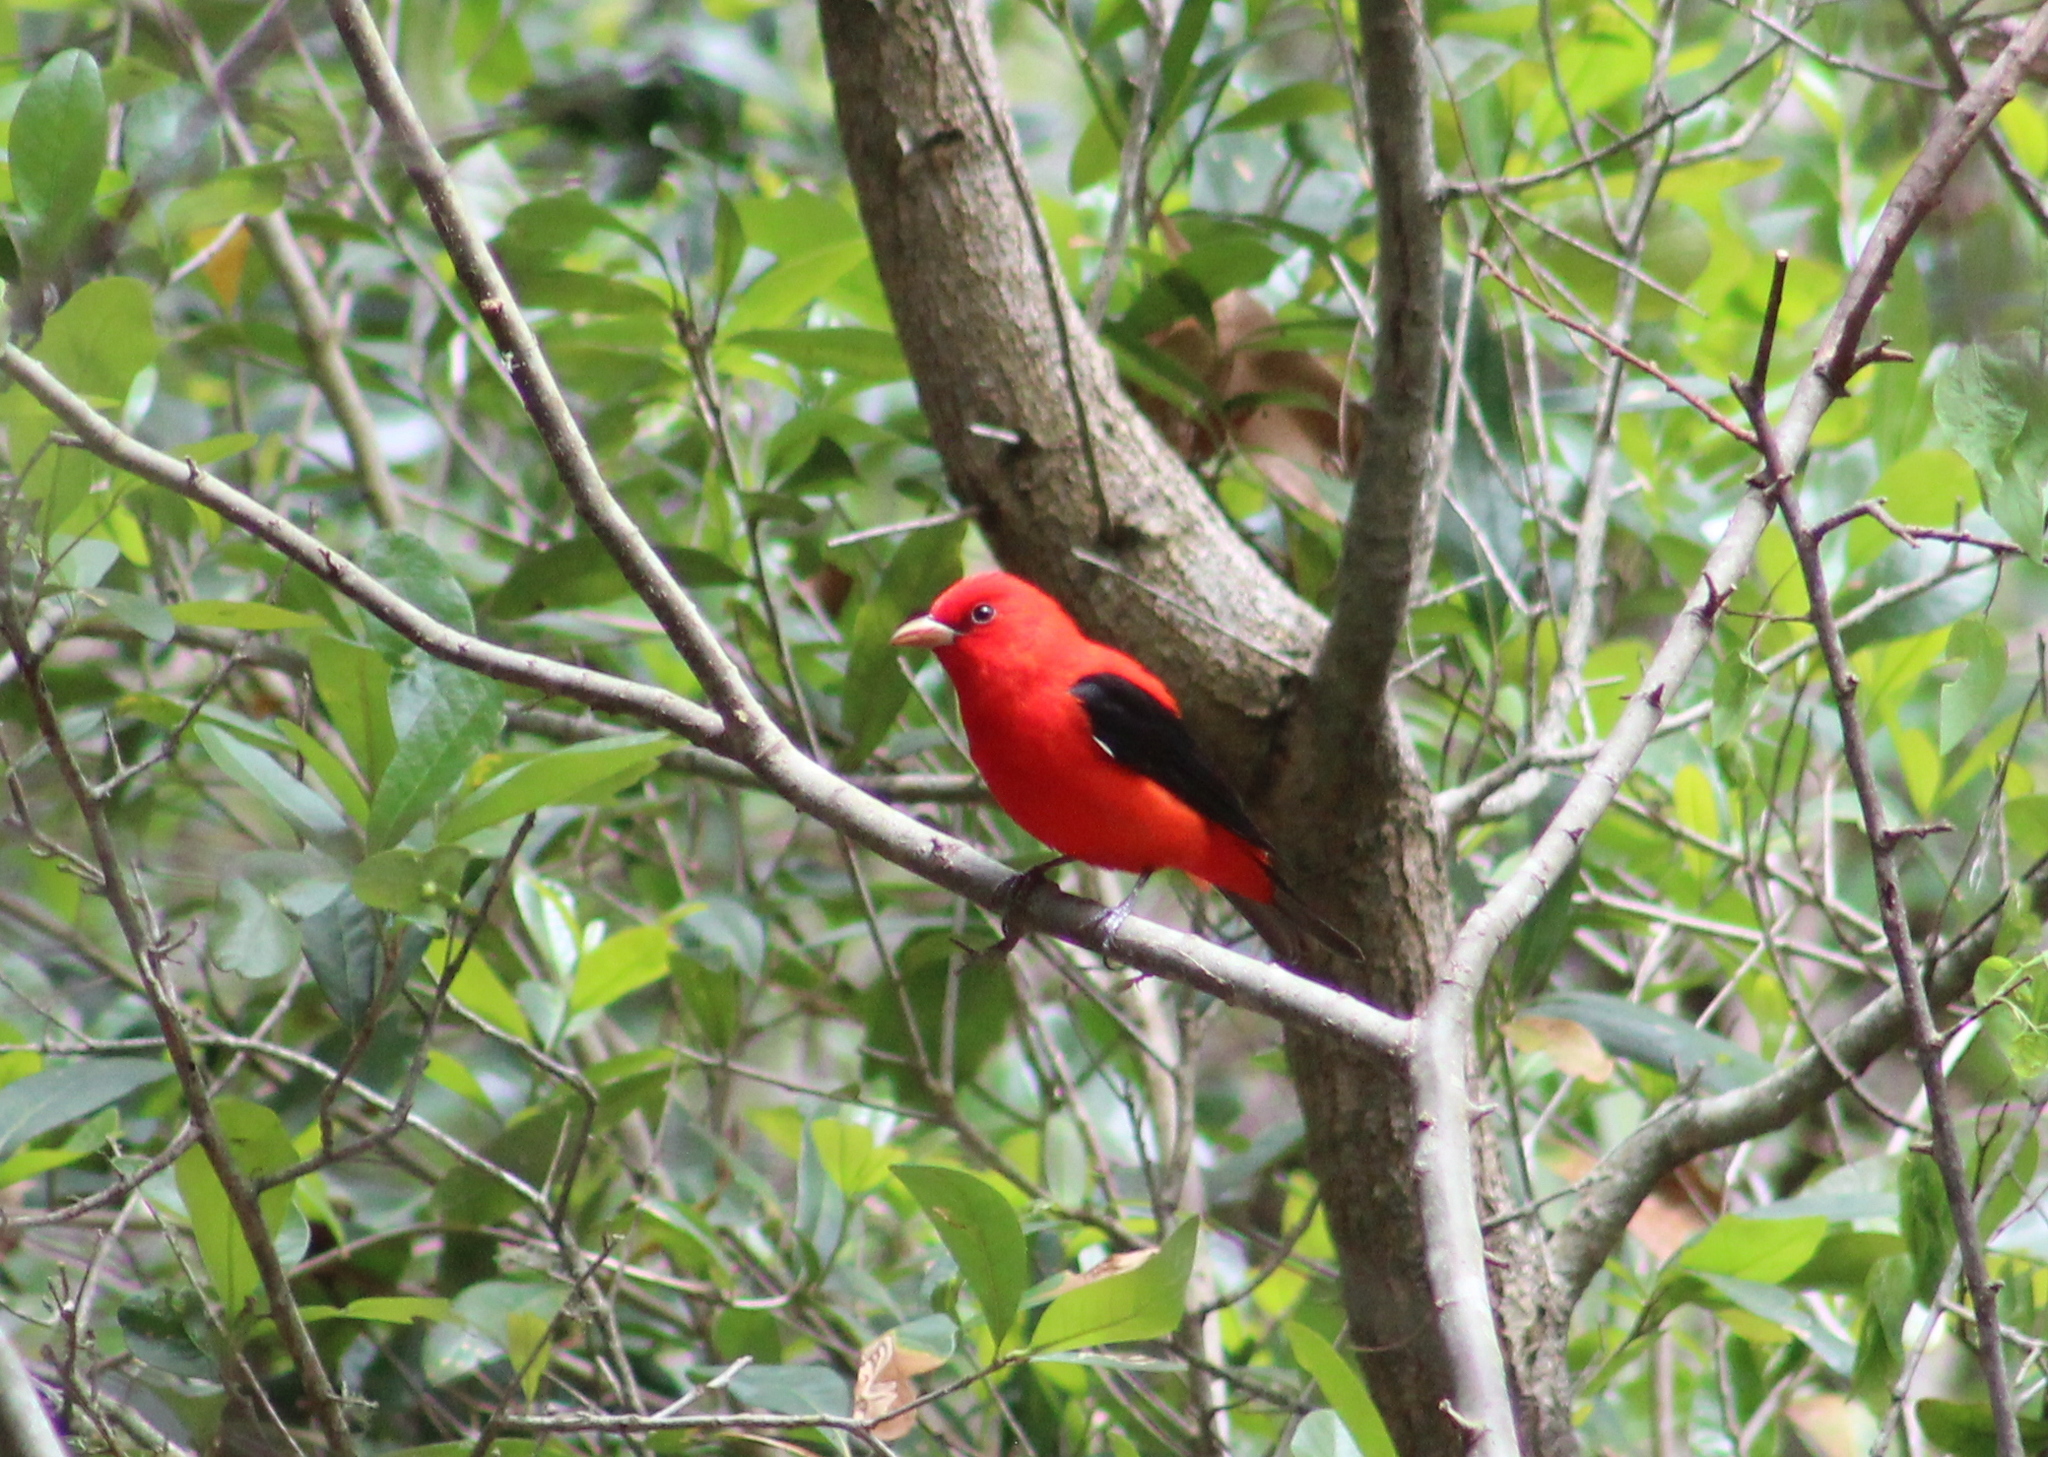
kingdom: Animalia
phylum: Chordata
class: Aves
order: Passeriformes
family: Cardinalidae
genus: Piranga
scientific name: Piranga olivacea
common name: Scarlet tanager
